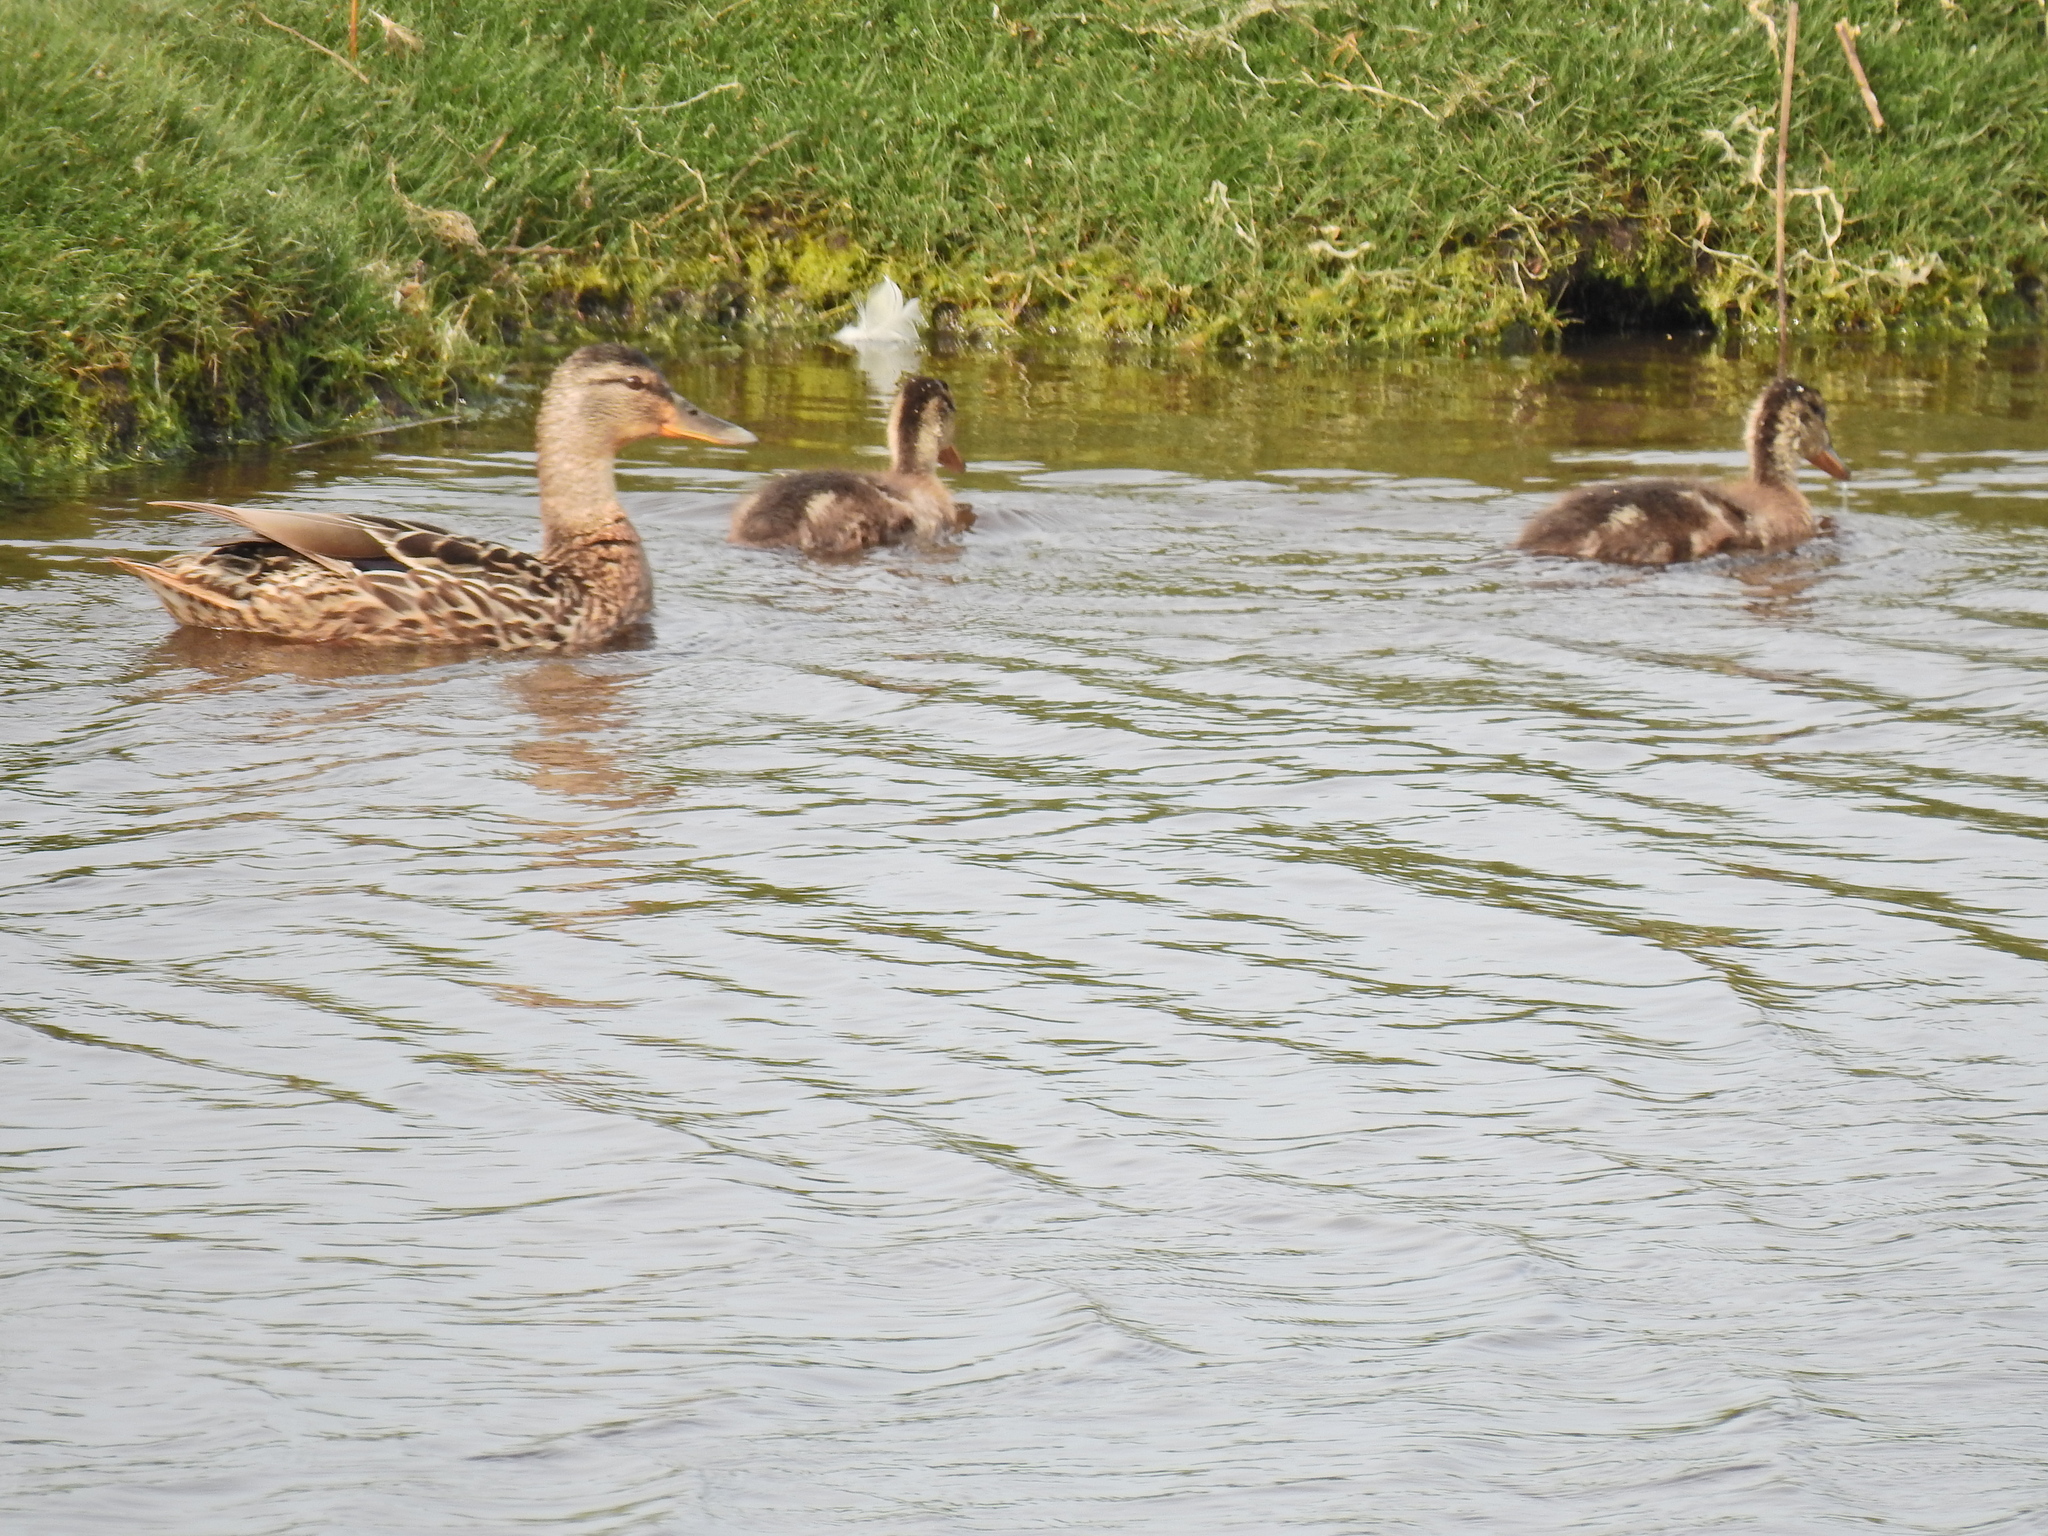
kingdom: Animalia
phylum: Chordata
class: Aves
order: Anseriformes
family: Anatidae
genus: Anas
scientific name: Anas platyrhynchos
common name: Mallard
